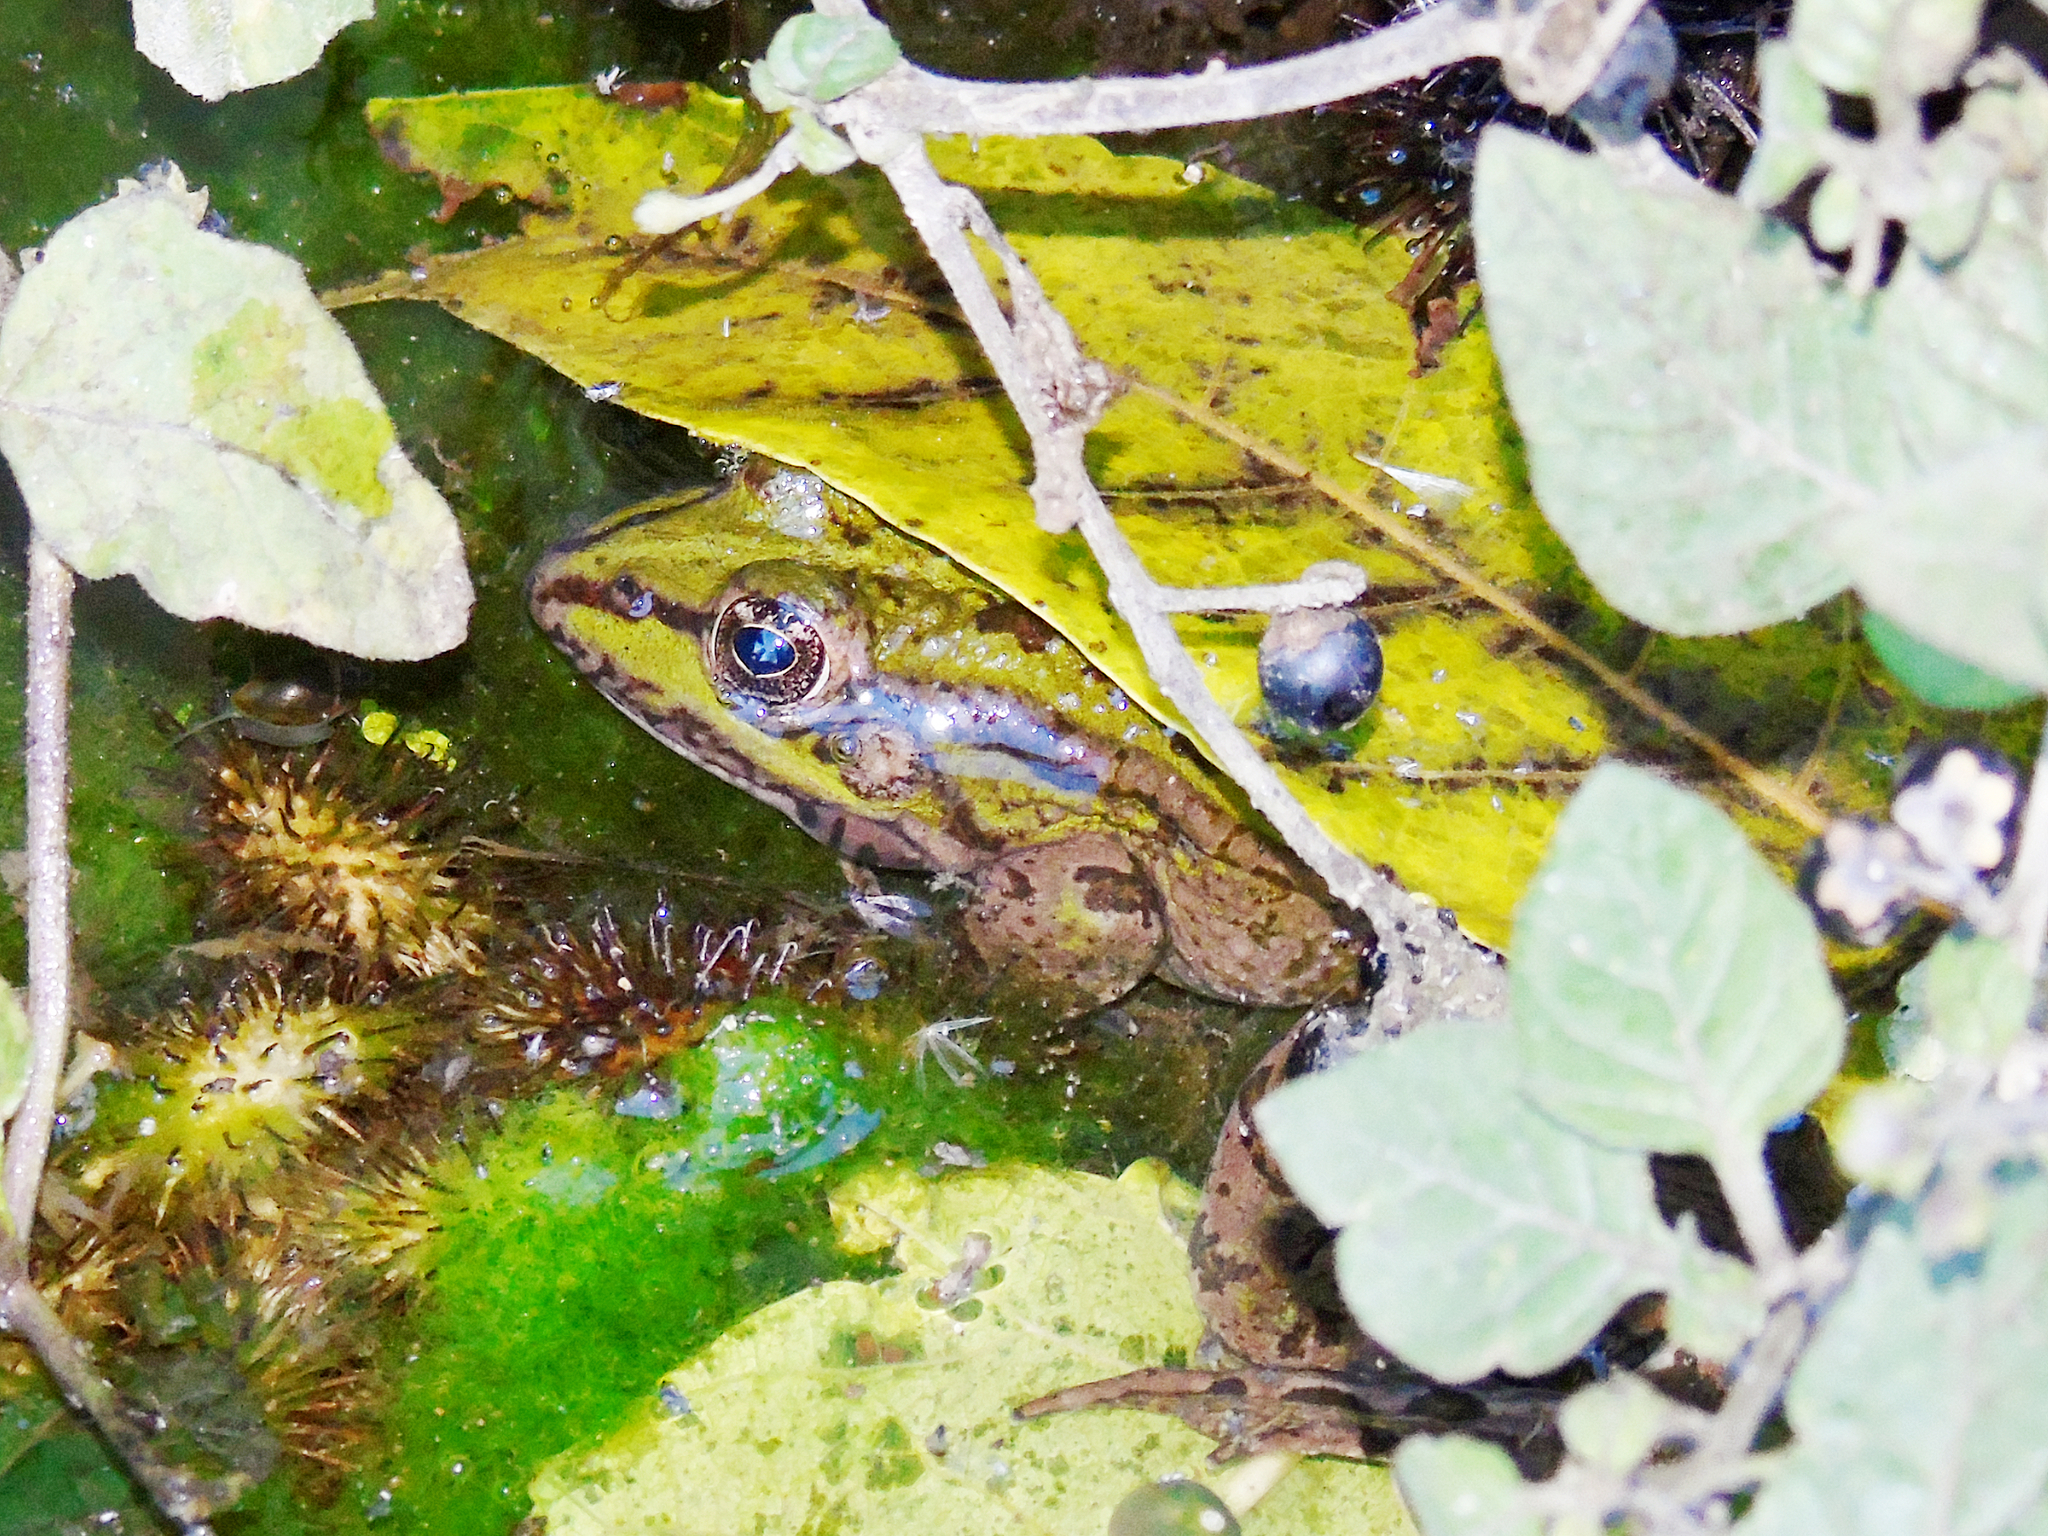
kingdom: Animalia
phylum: Chordata
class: Amphibia
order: Anura
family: Ranidae
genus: Pelophylax
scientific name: Pelophylax ridibundus
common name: Marsh frog
